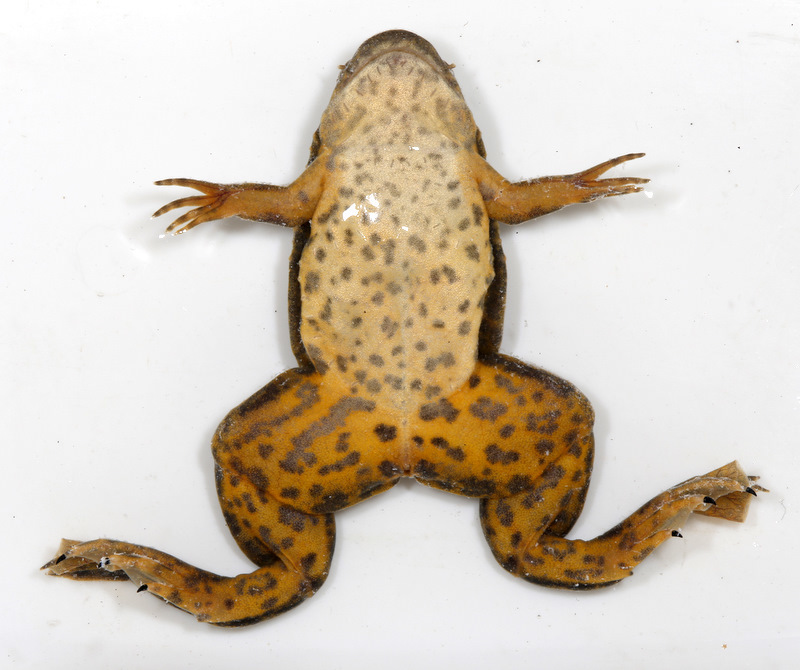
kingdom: Animalia
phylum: Chordata
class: Amphibia
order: Anura
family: Pipidae
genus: Xenopus
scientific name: Xenopus petersii
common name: Peters' clawed frog
